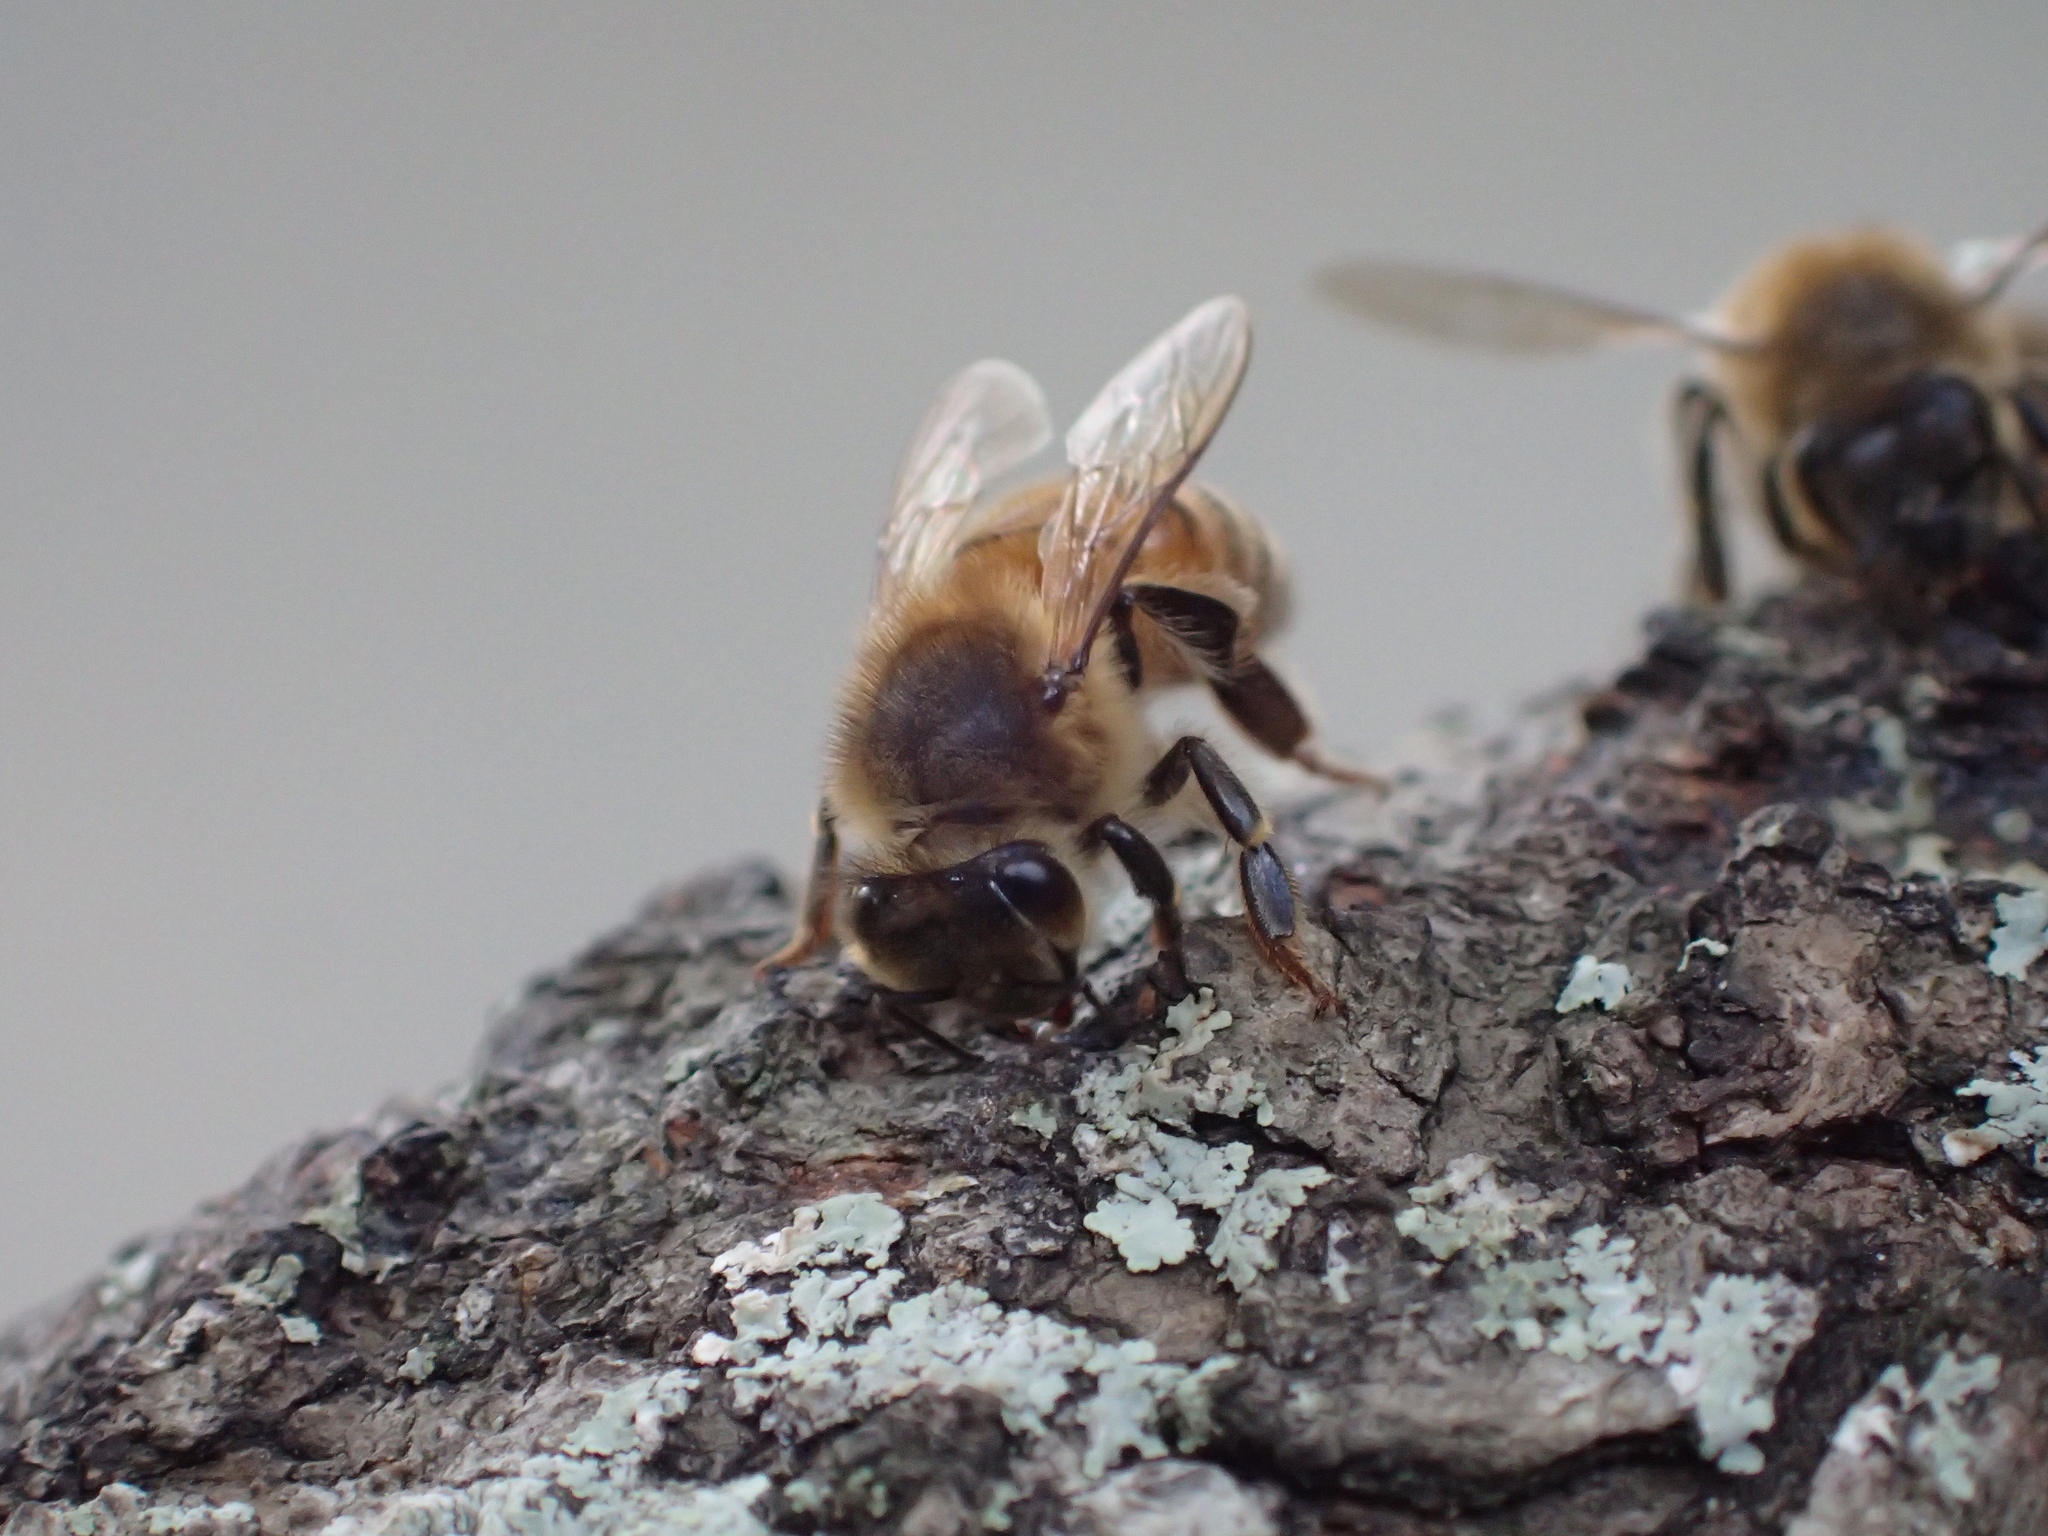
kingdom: Animalia
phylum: Arthropoda
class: Insecta
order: Hymenoptera
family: Apidae
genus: Apis
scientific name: Apis mellifera
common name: Honey bee
